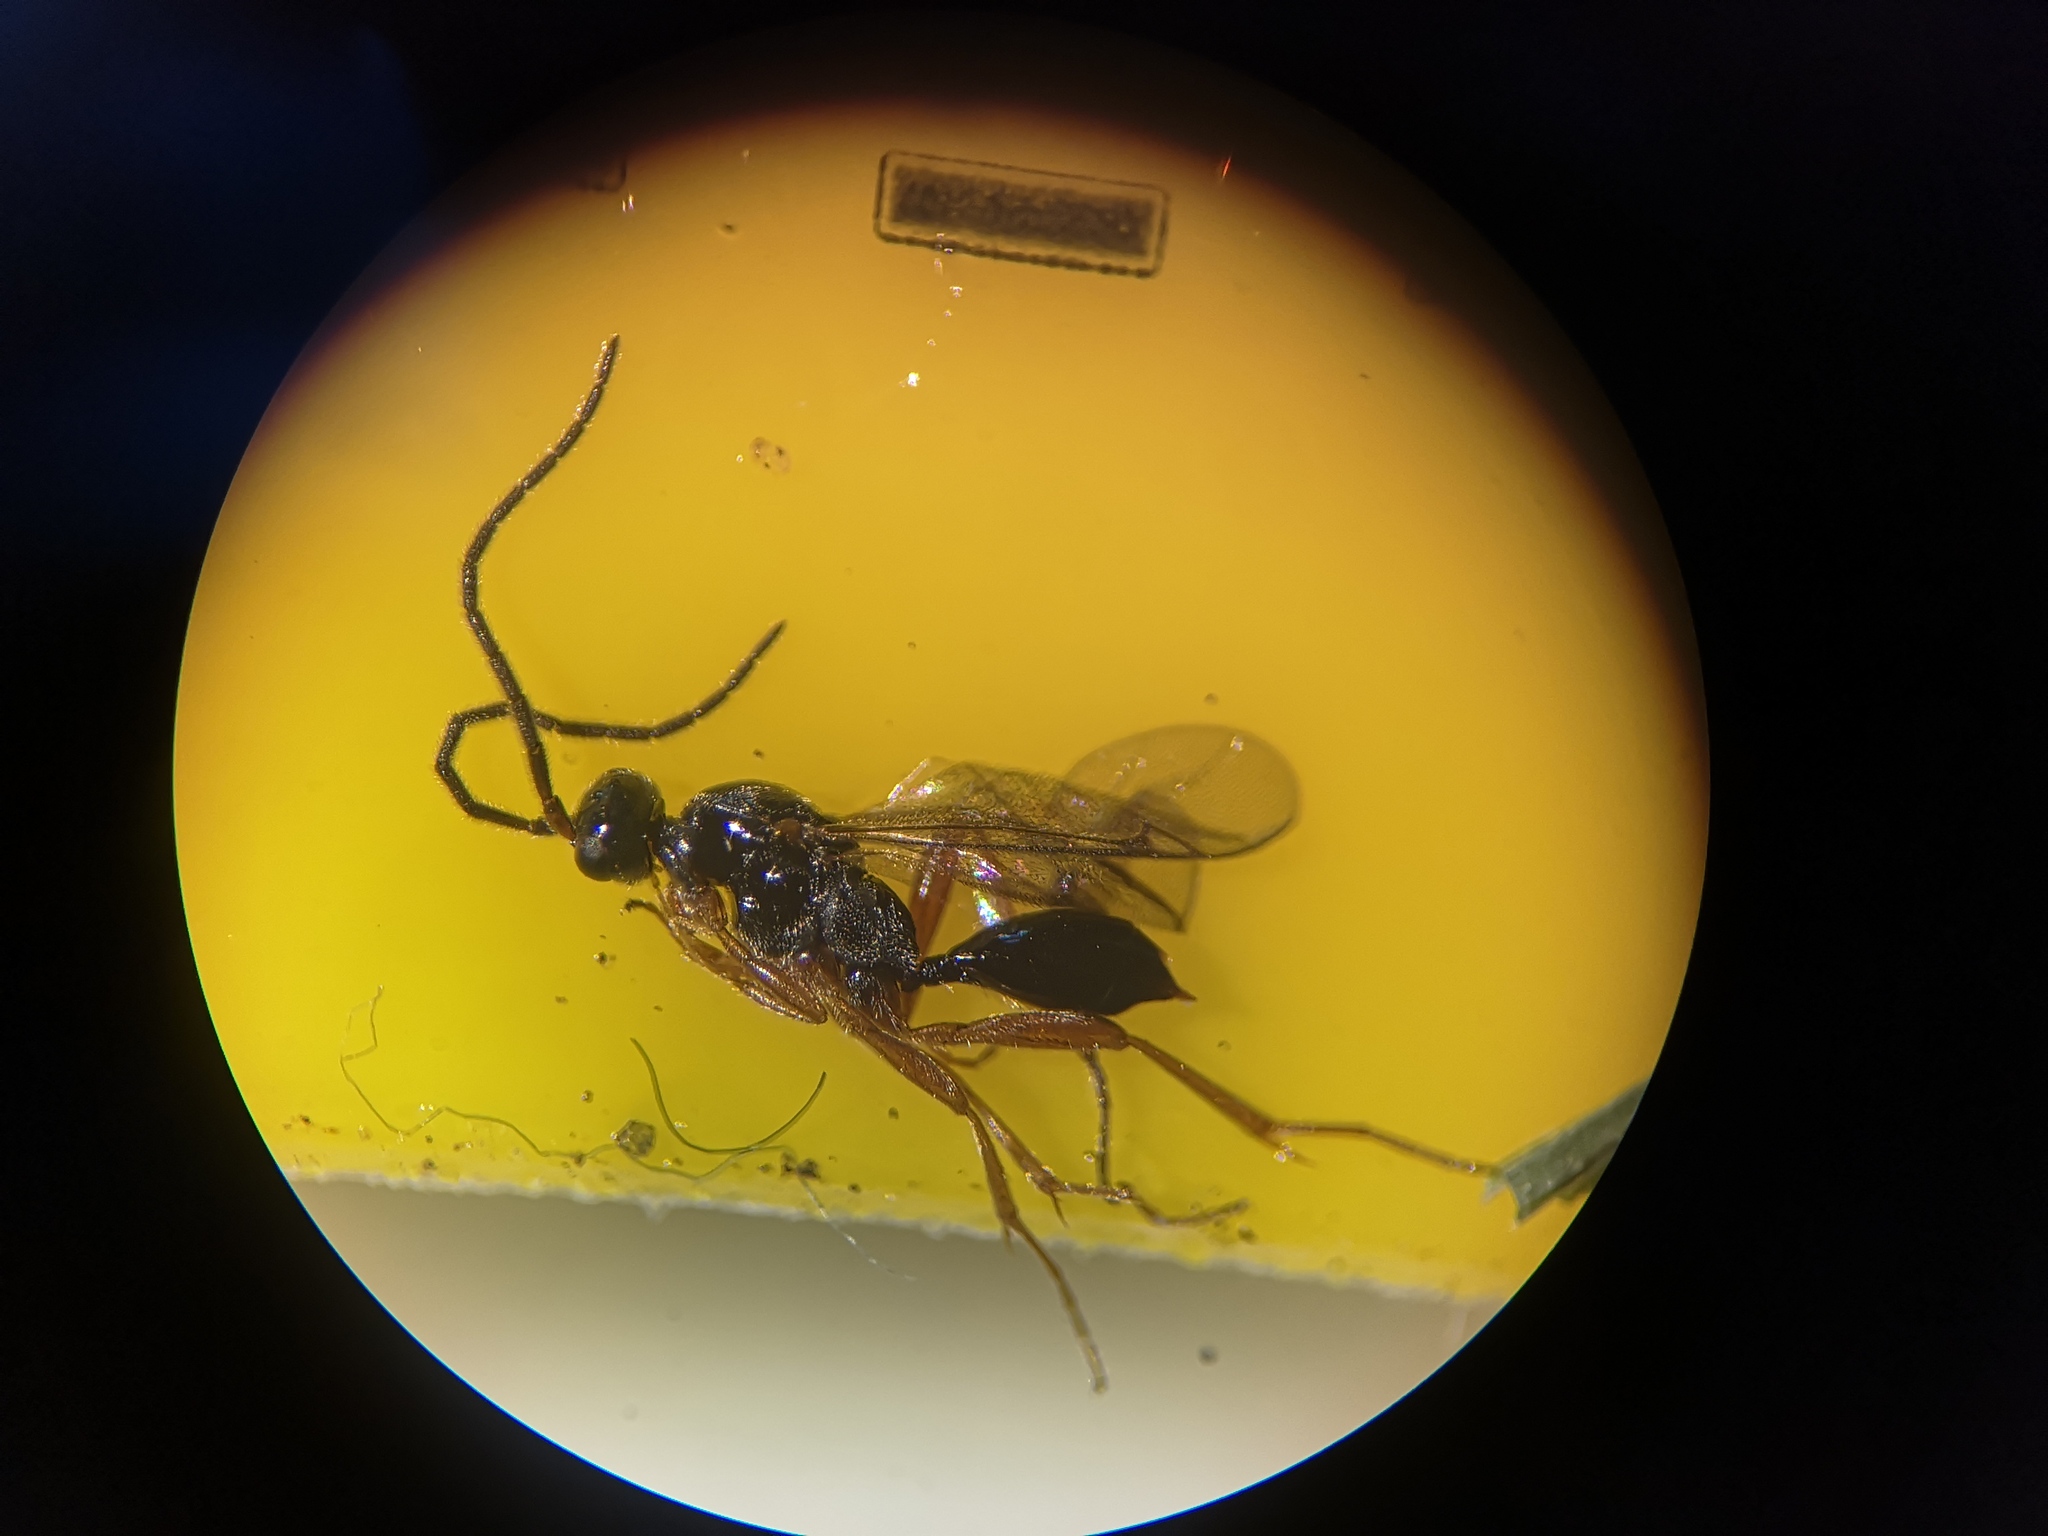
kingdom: Animalia
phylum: Arthropoda
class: Insecta
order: Hymenoptera
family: Proctotrupidae
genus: Phaneroserphus
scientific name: Phaneroserphus calcar
